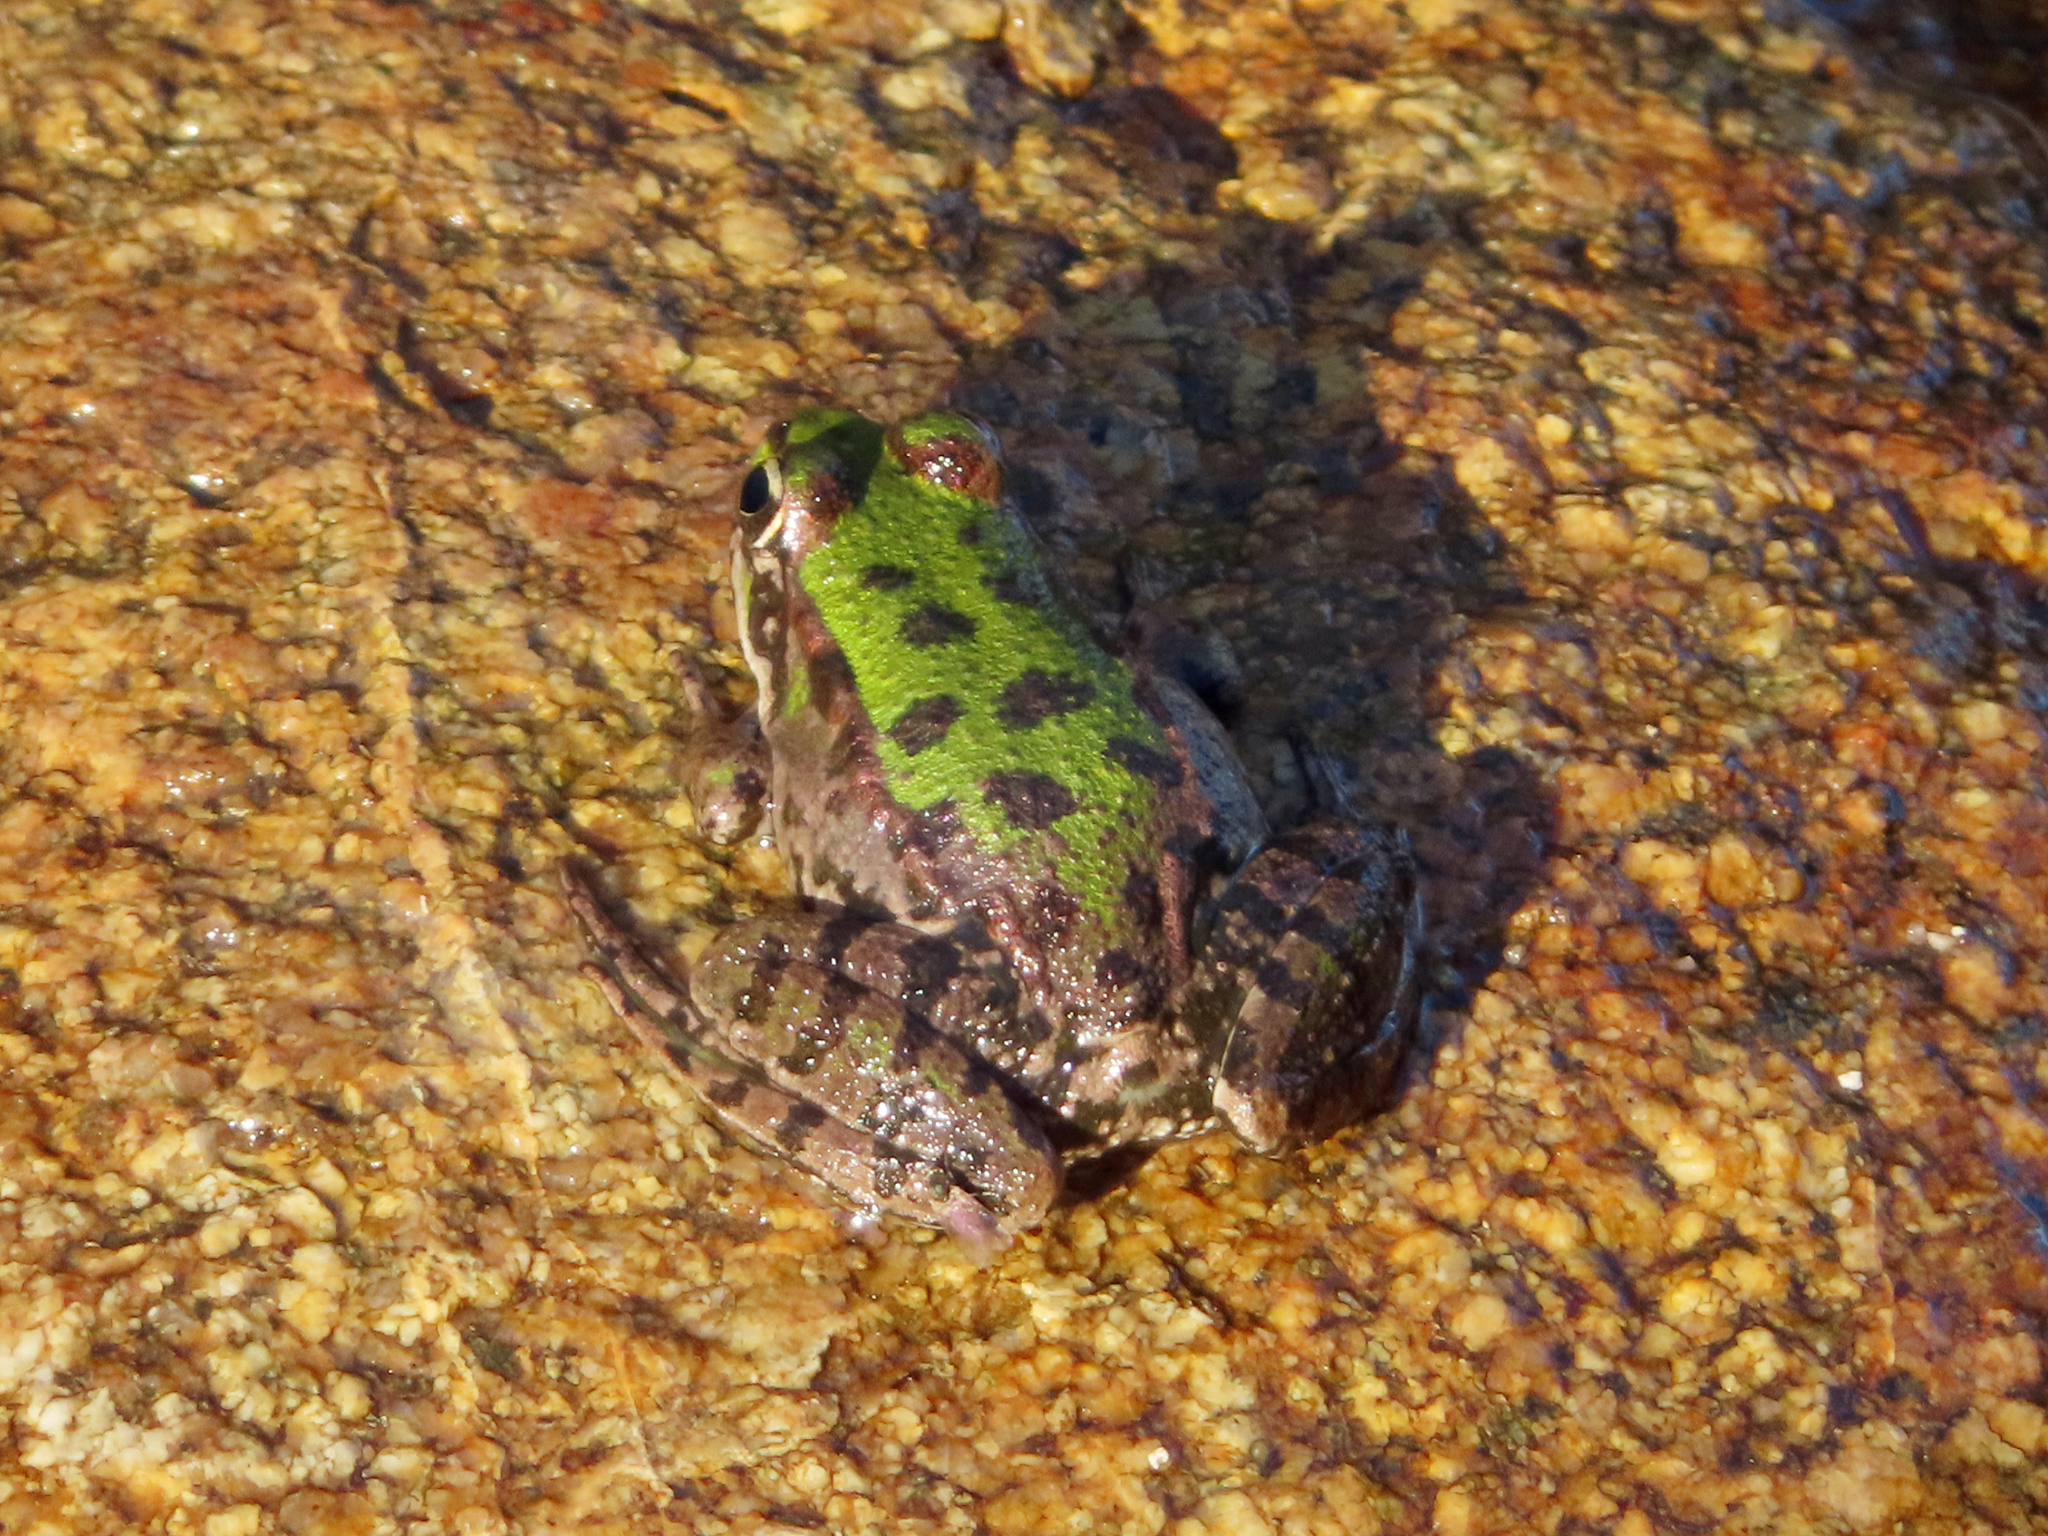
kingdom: Animalia
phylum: Chordata
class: Amphibia
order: Anura
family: Ranidae
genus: Pelophylax
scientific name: Pelophylax ridibundus
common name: Marsh frog
